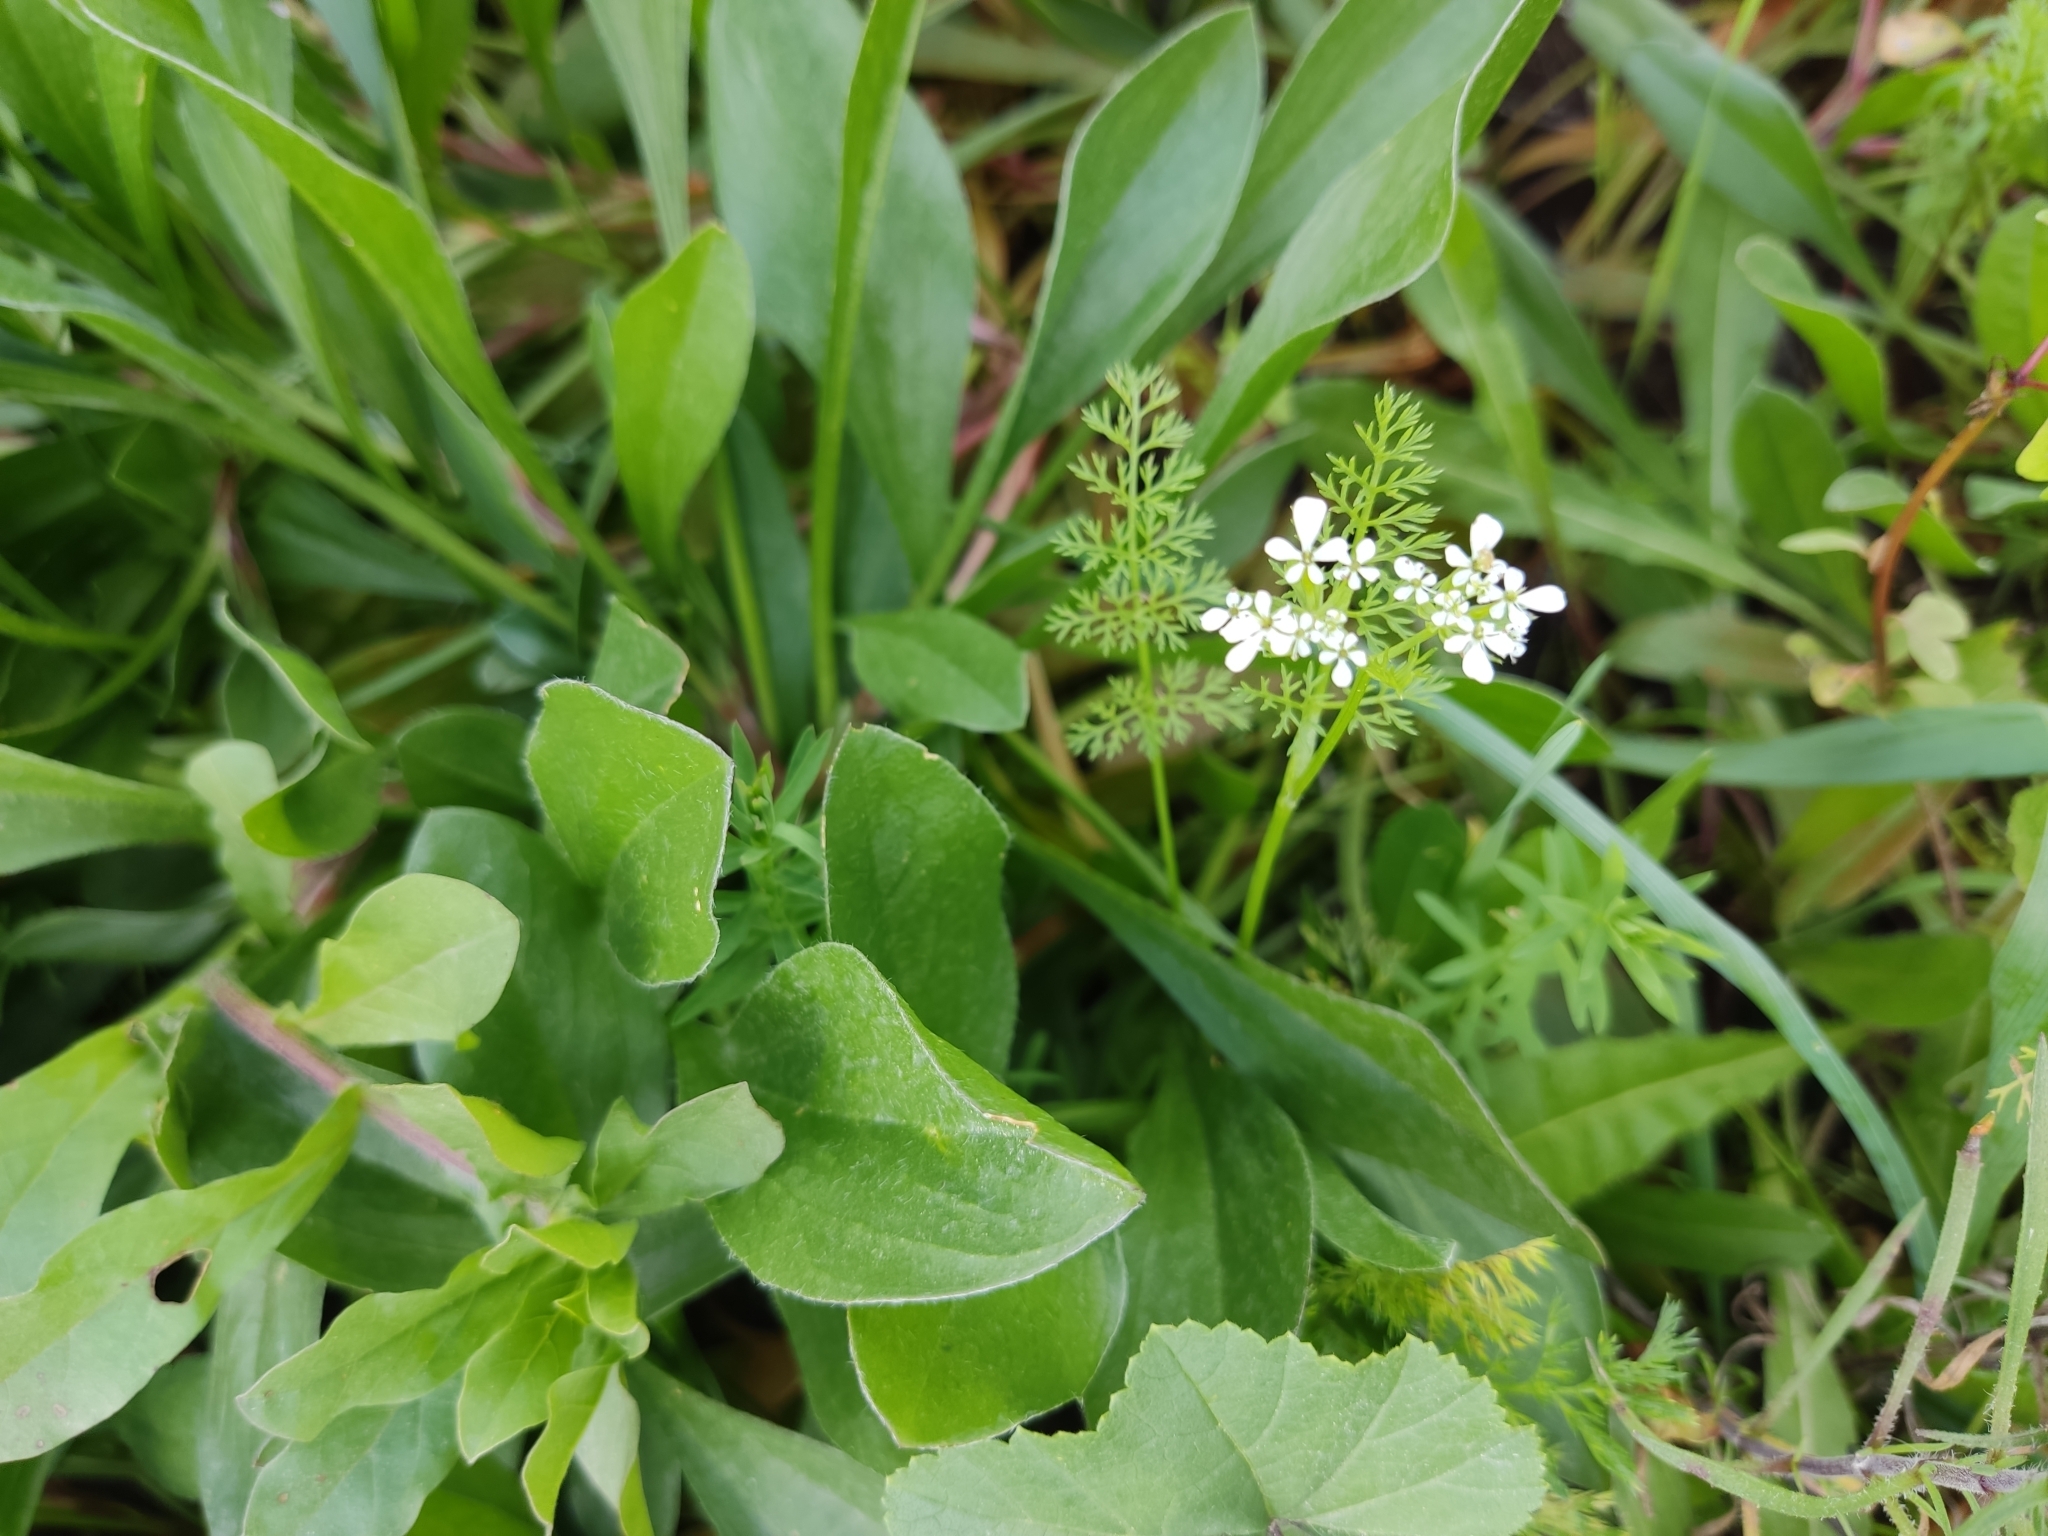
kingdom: Plantae
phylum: Tracheophyta
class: Magnoliopsida
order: Apiales
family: Apiaceae
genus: Scandix
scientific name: Scandix pecten-veneris
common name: Shepherd's-needle
